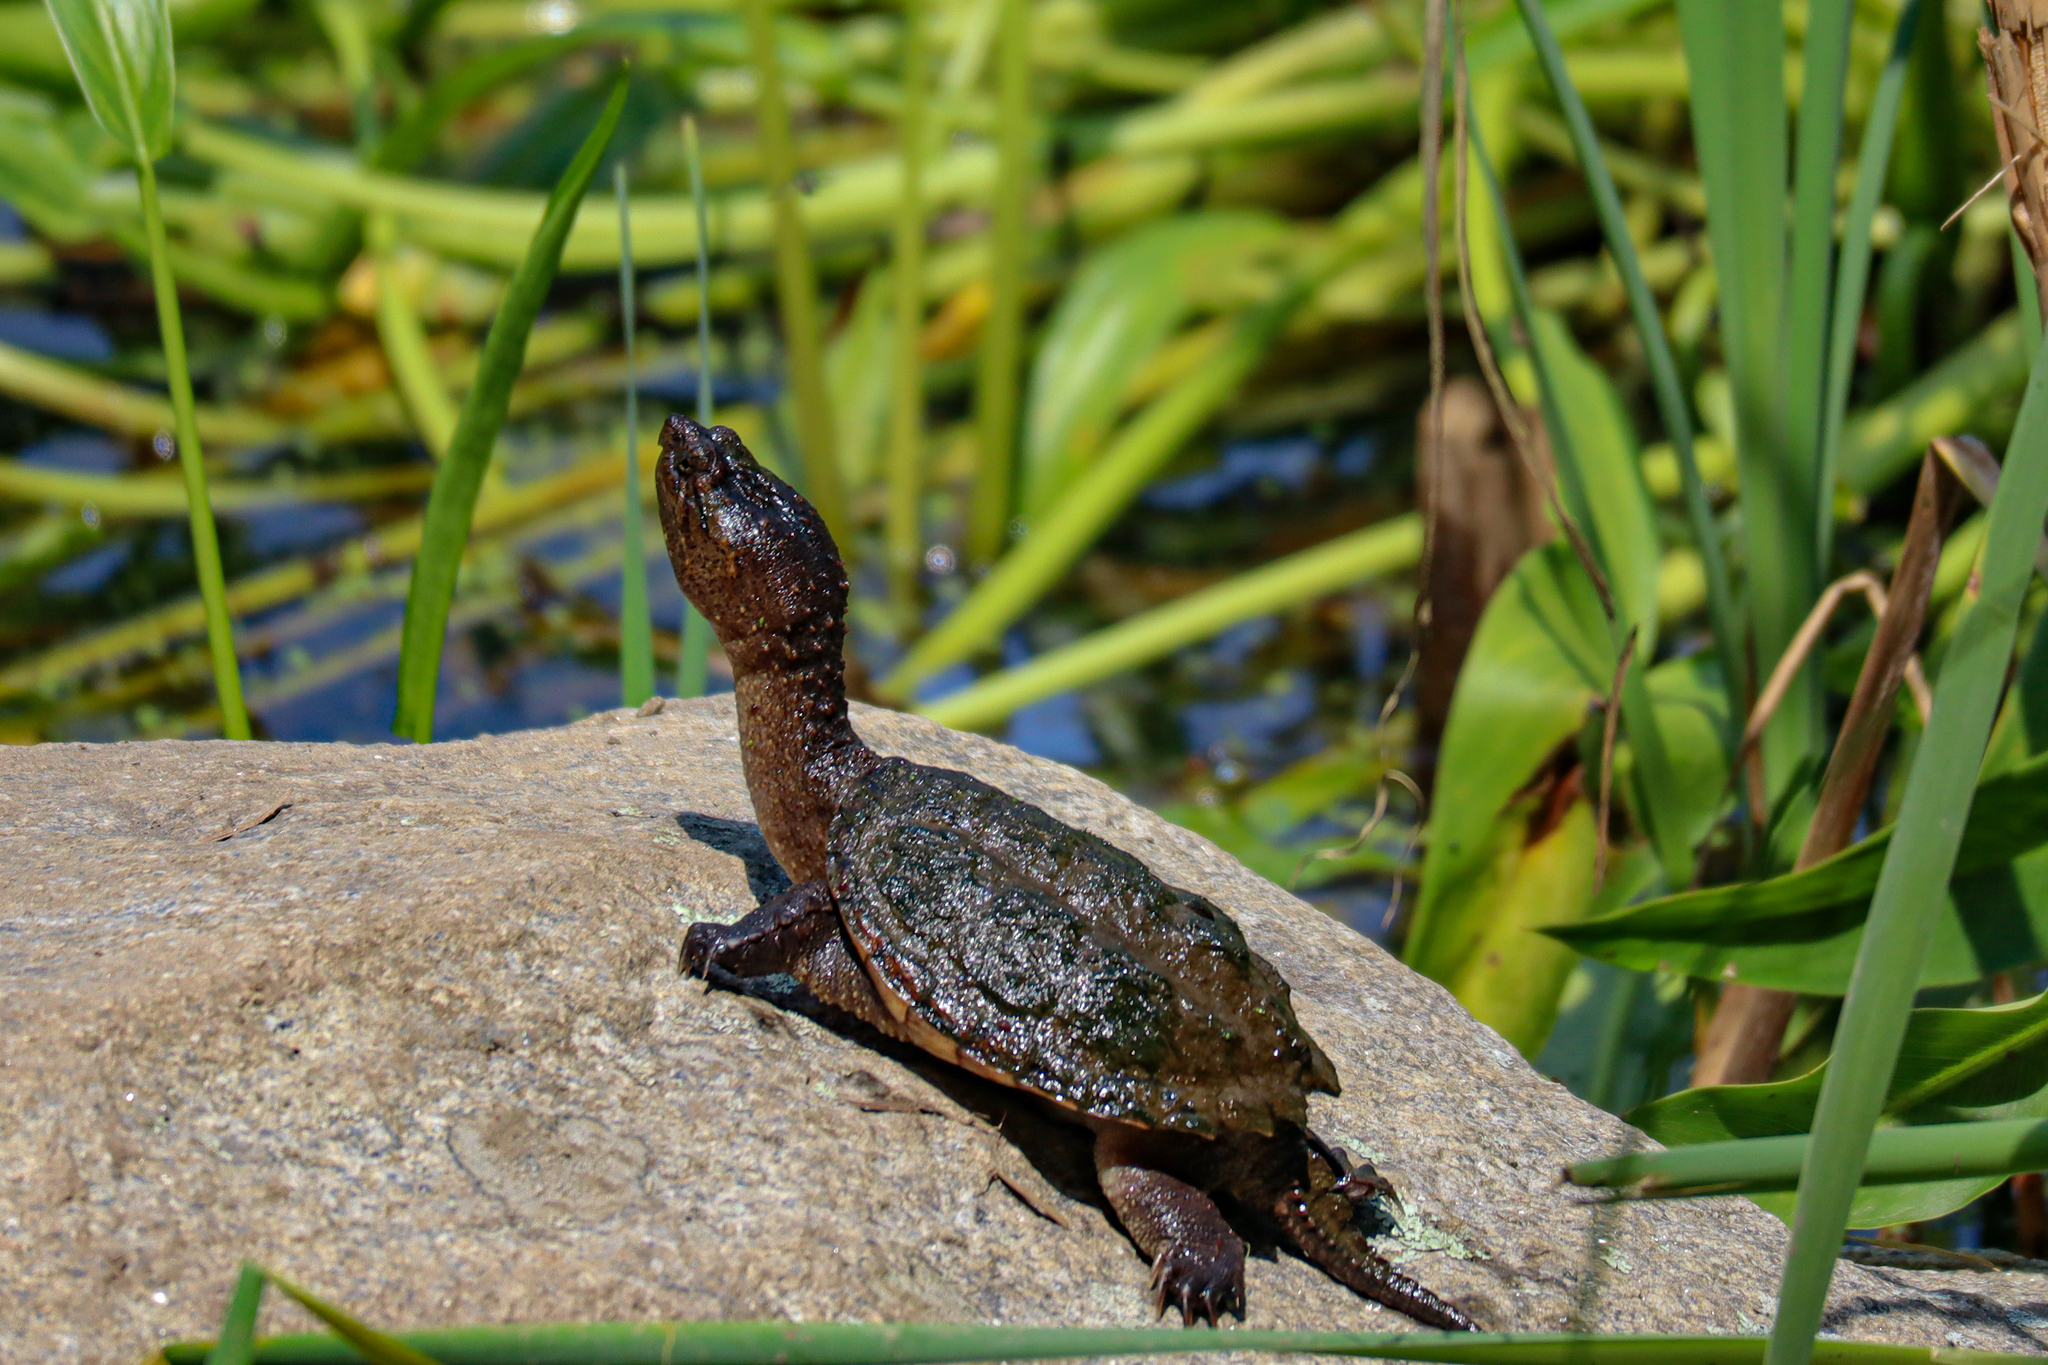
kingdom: Animalia
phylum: Chordata
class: Testudines
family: Chelydridae
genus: Chelydra
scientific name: Chelydra serpentina
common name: Common snapping turtle
